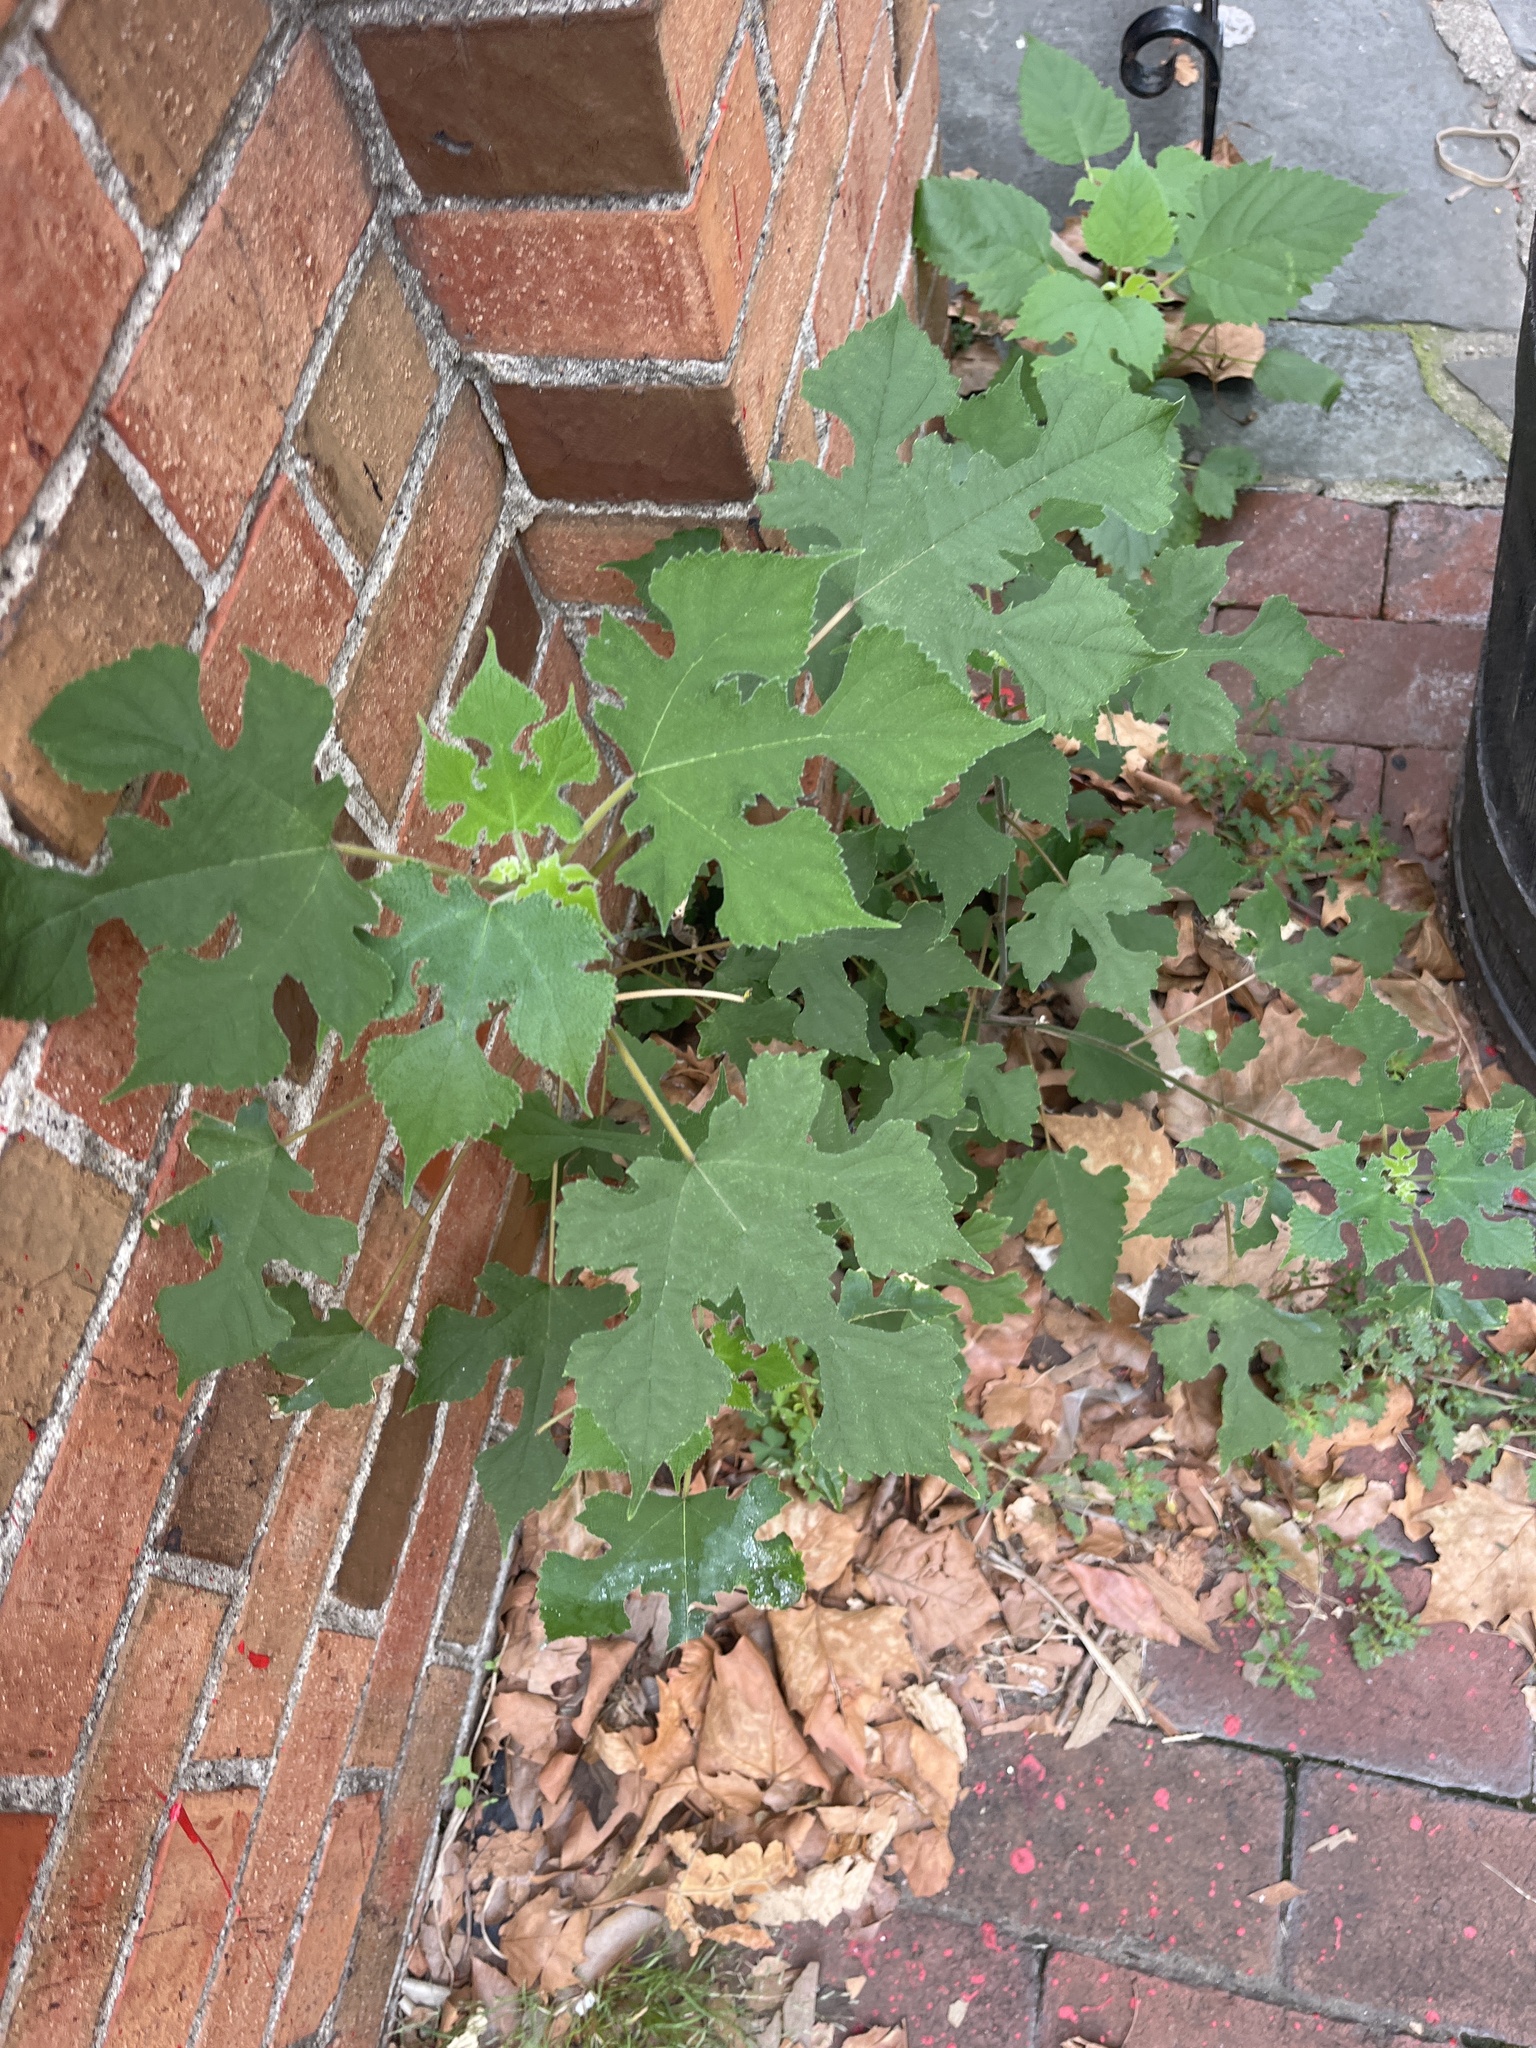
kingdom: Plantae
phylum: Tracheophyta
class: Magnoliopsida
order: Rosales
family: Moraceae
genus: Broussonetia
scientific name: Broussonetia papyrifera
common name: Paper mulberry
